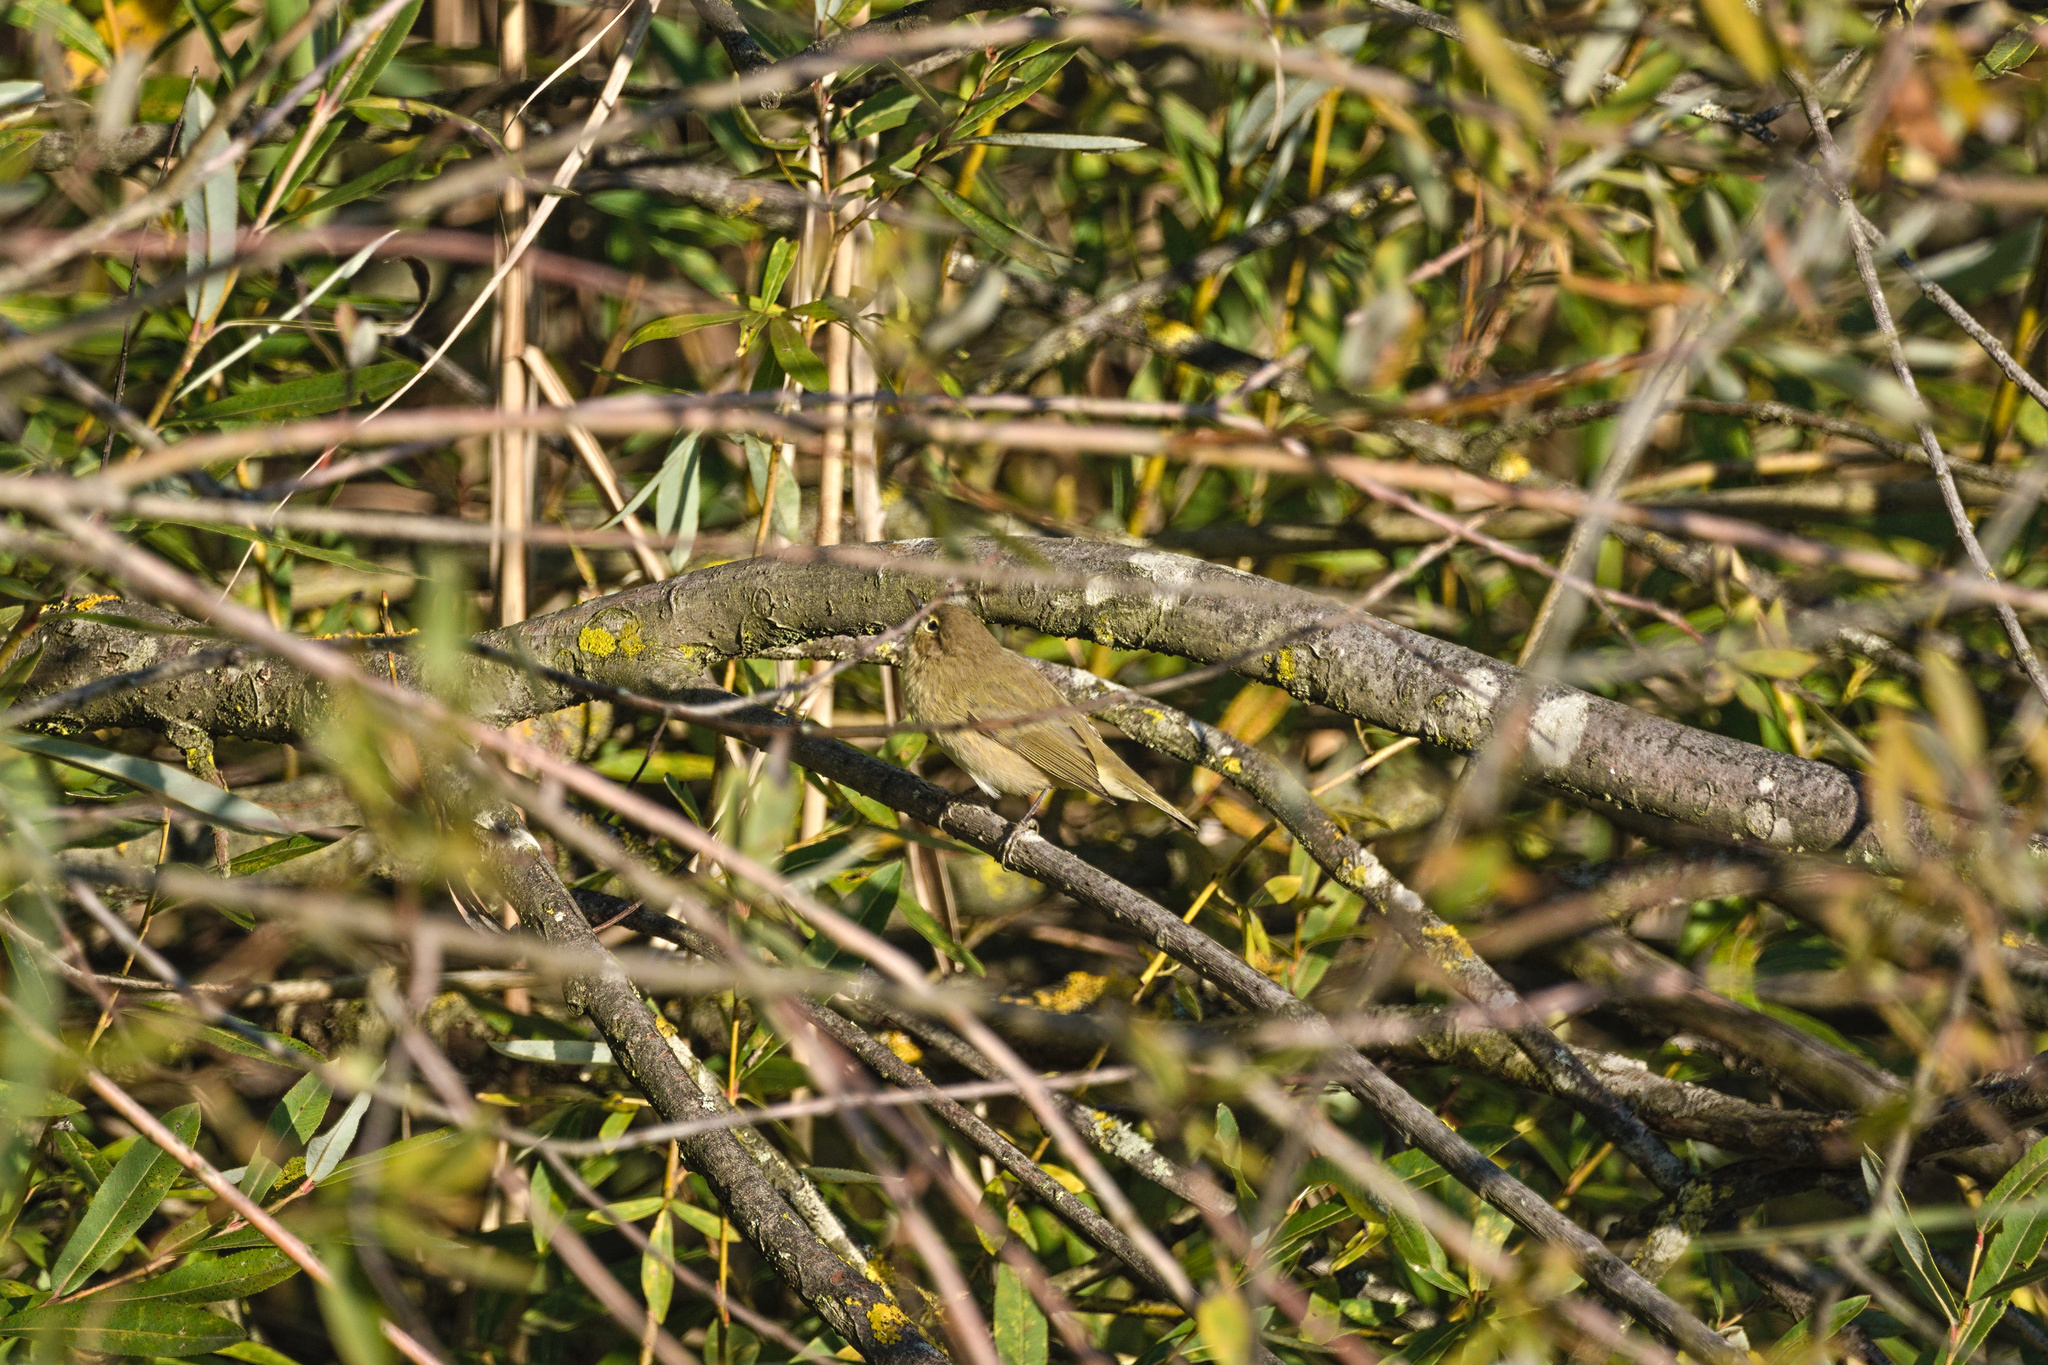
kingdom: Animalia
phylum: Chordata
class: Aves
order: Passeriformes
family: Phylloscopidae
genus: Phylloscopus
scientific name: Phylloscopus collybita
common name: Common chiffchaff
